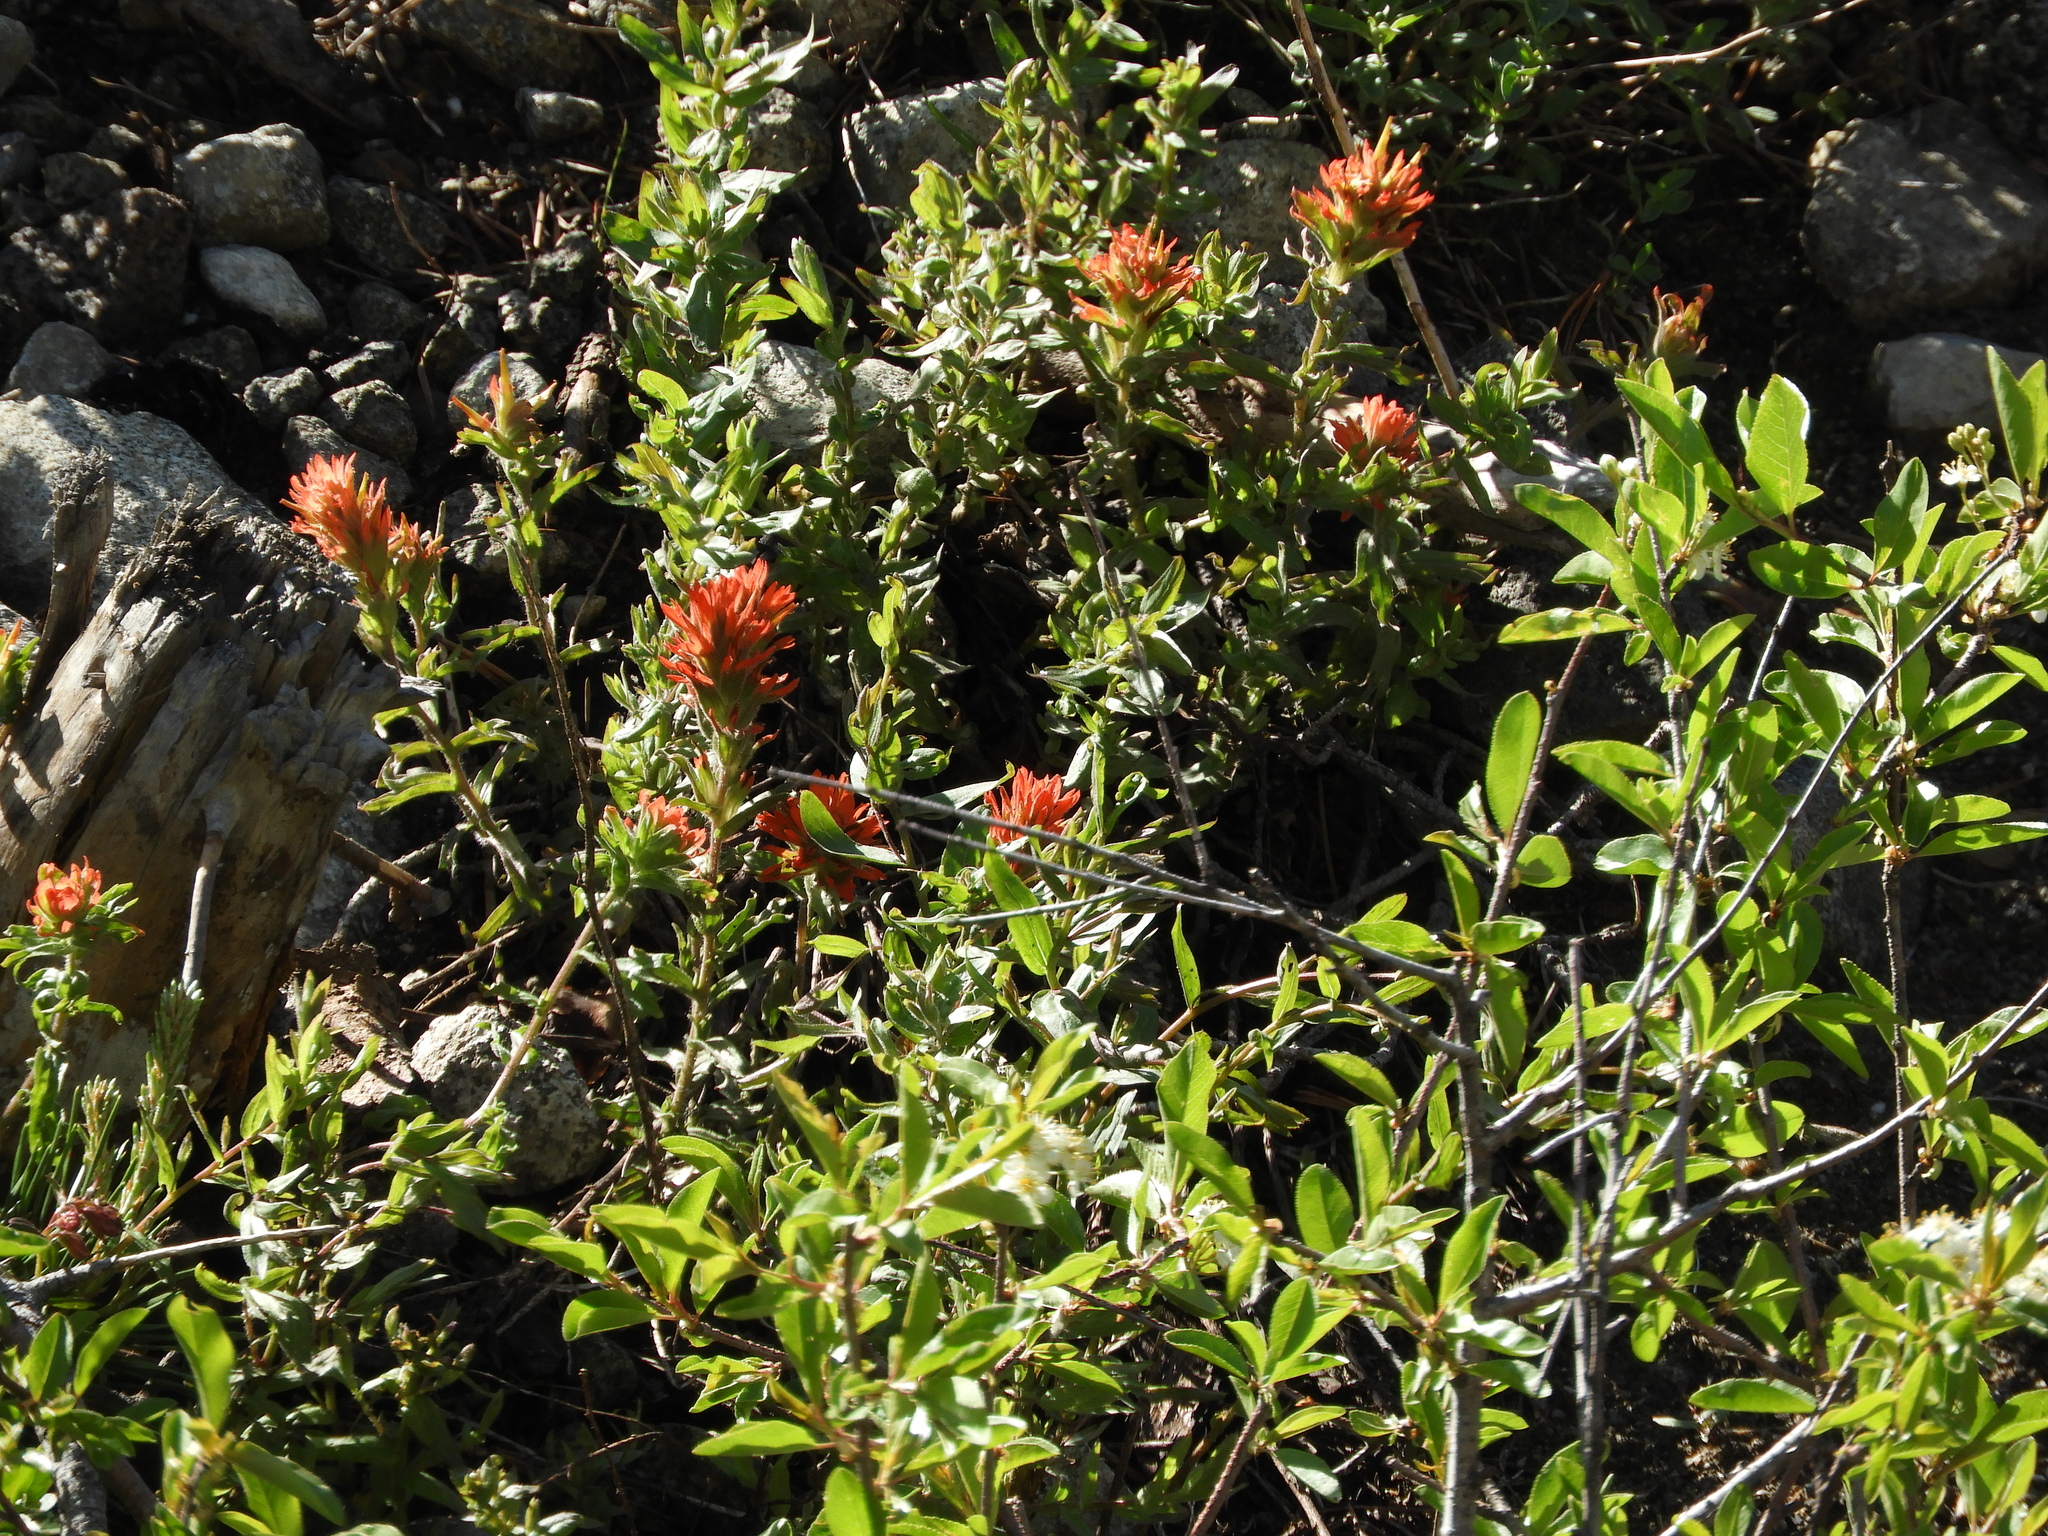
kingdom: Plantae
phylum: Tracheophyta
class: Magnoliopsida
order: Lamiales
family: Orobanchaceae
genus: Castilleja
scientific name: Castilleja applegatei
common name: Wavy-leaf paintbrush
